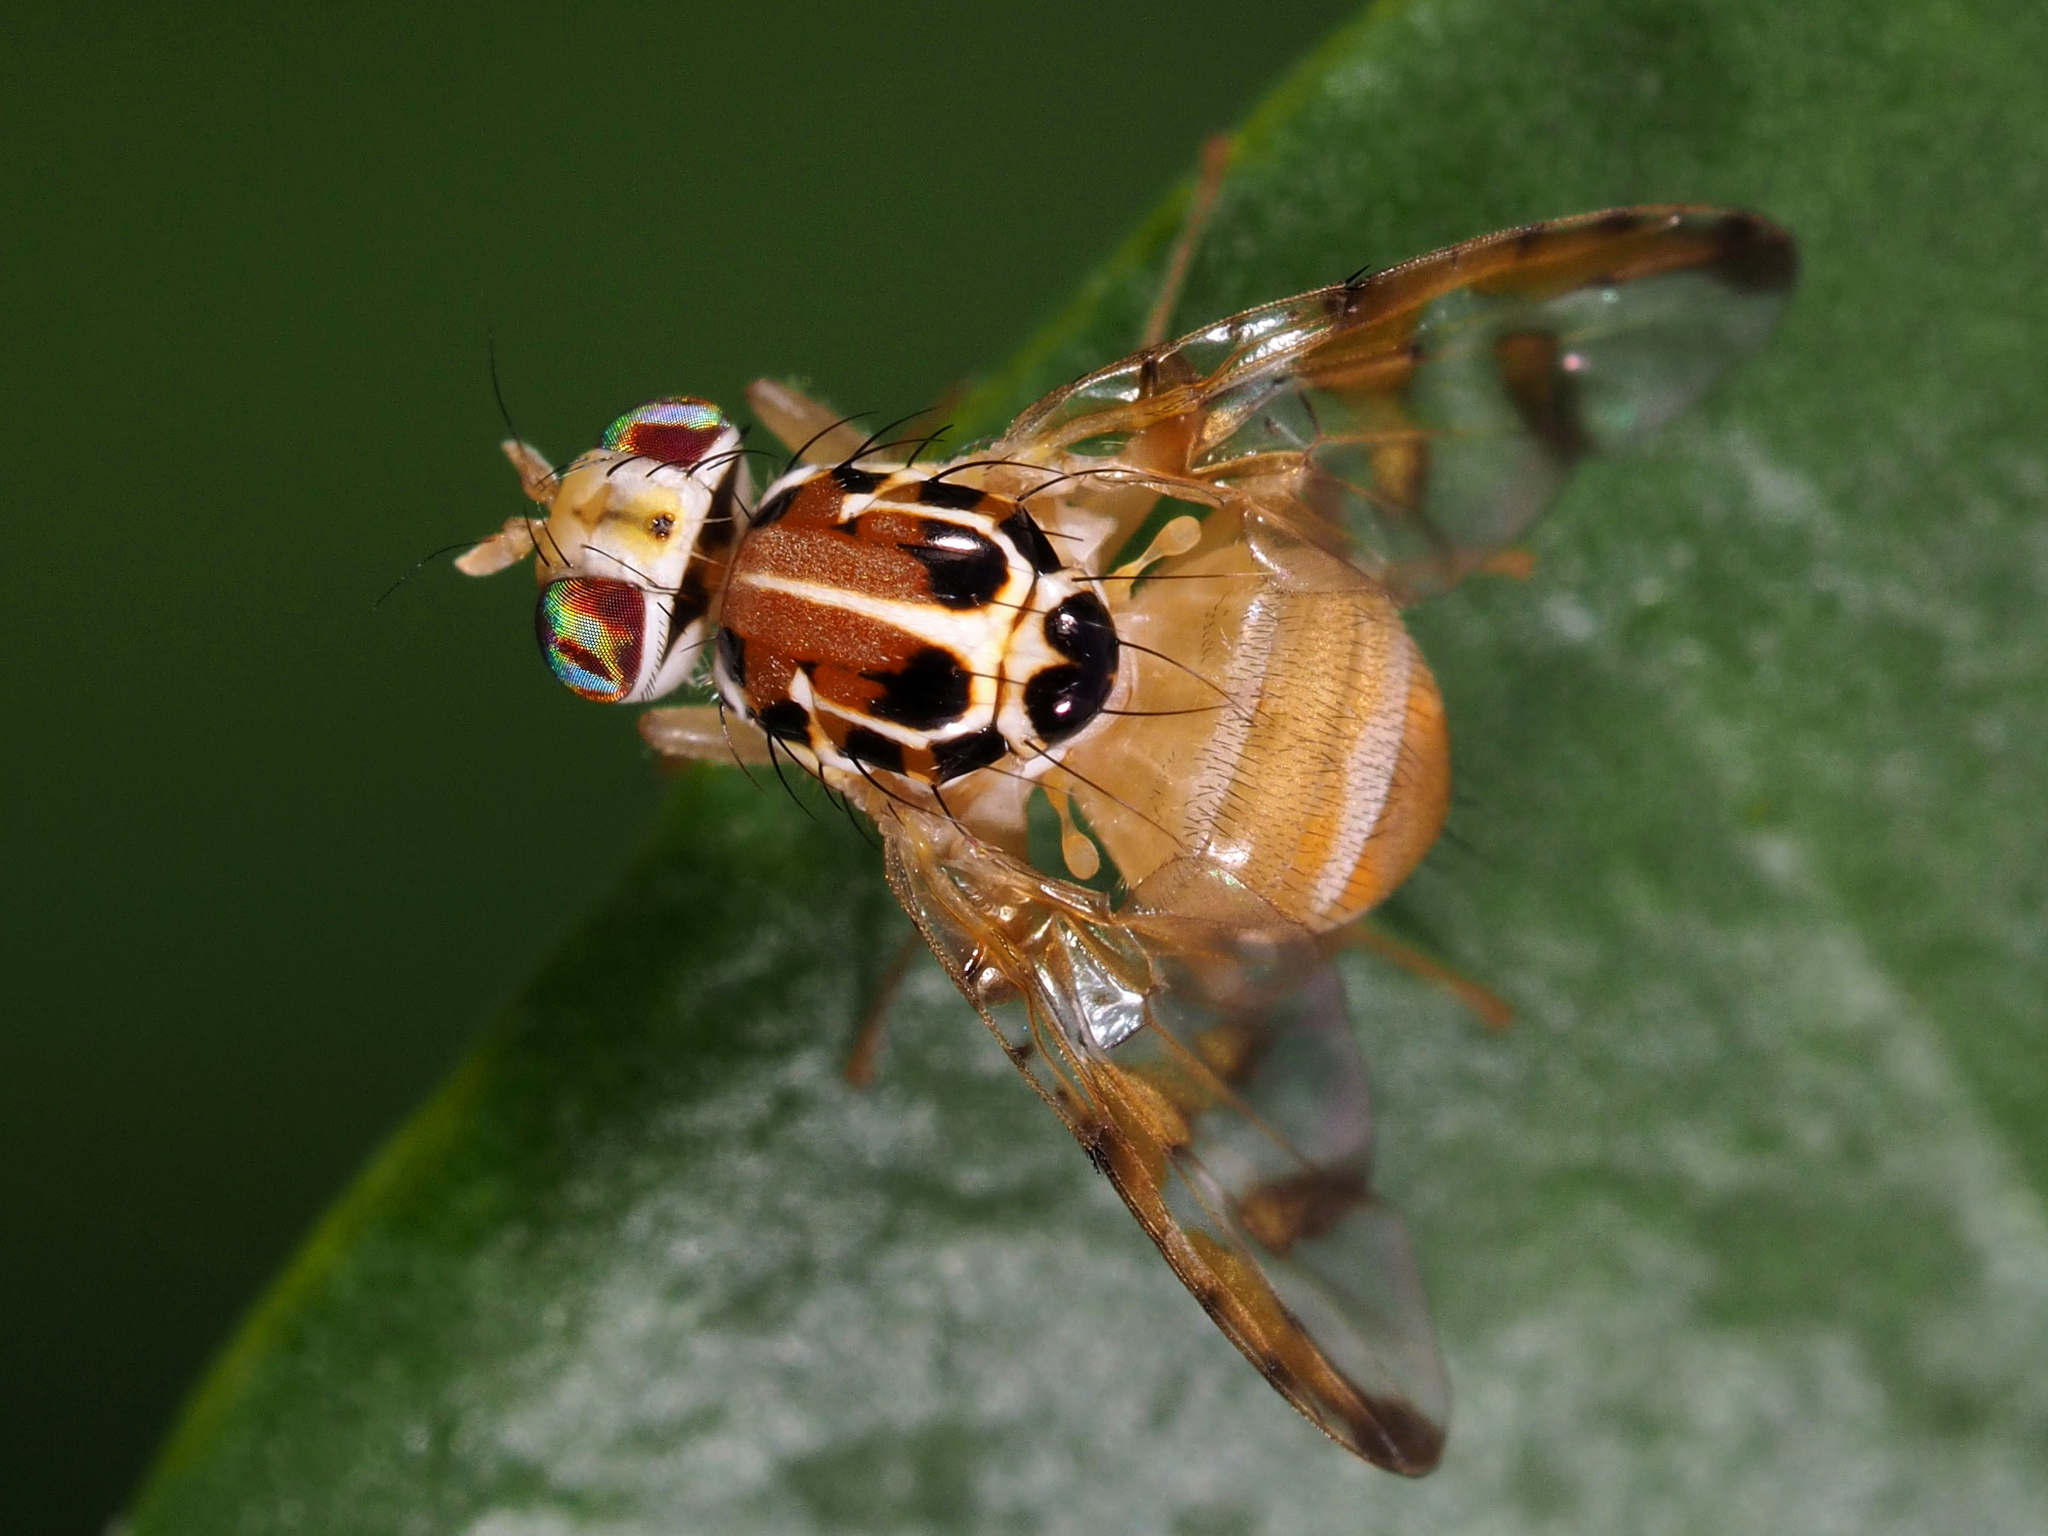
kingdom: Animalia
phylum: Arthropoda
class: Insecta
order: Diptera
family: Tephritidae
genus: Capparimyia
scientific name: Capparimyia savastani
